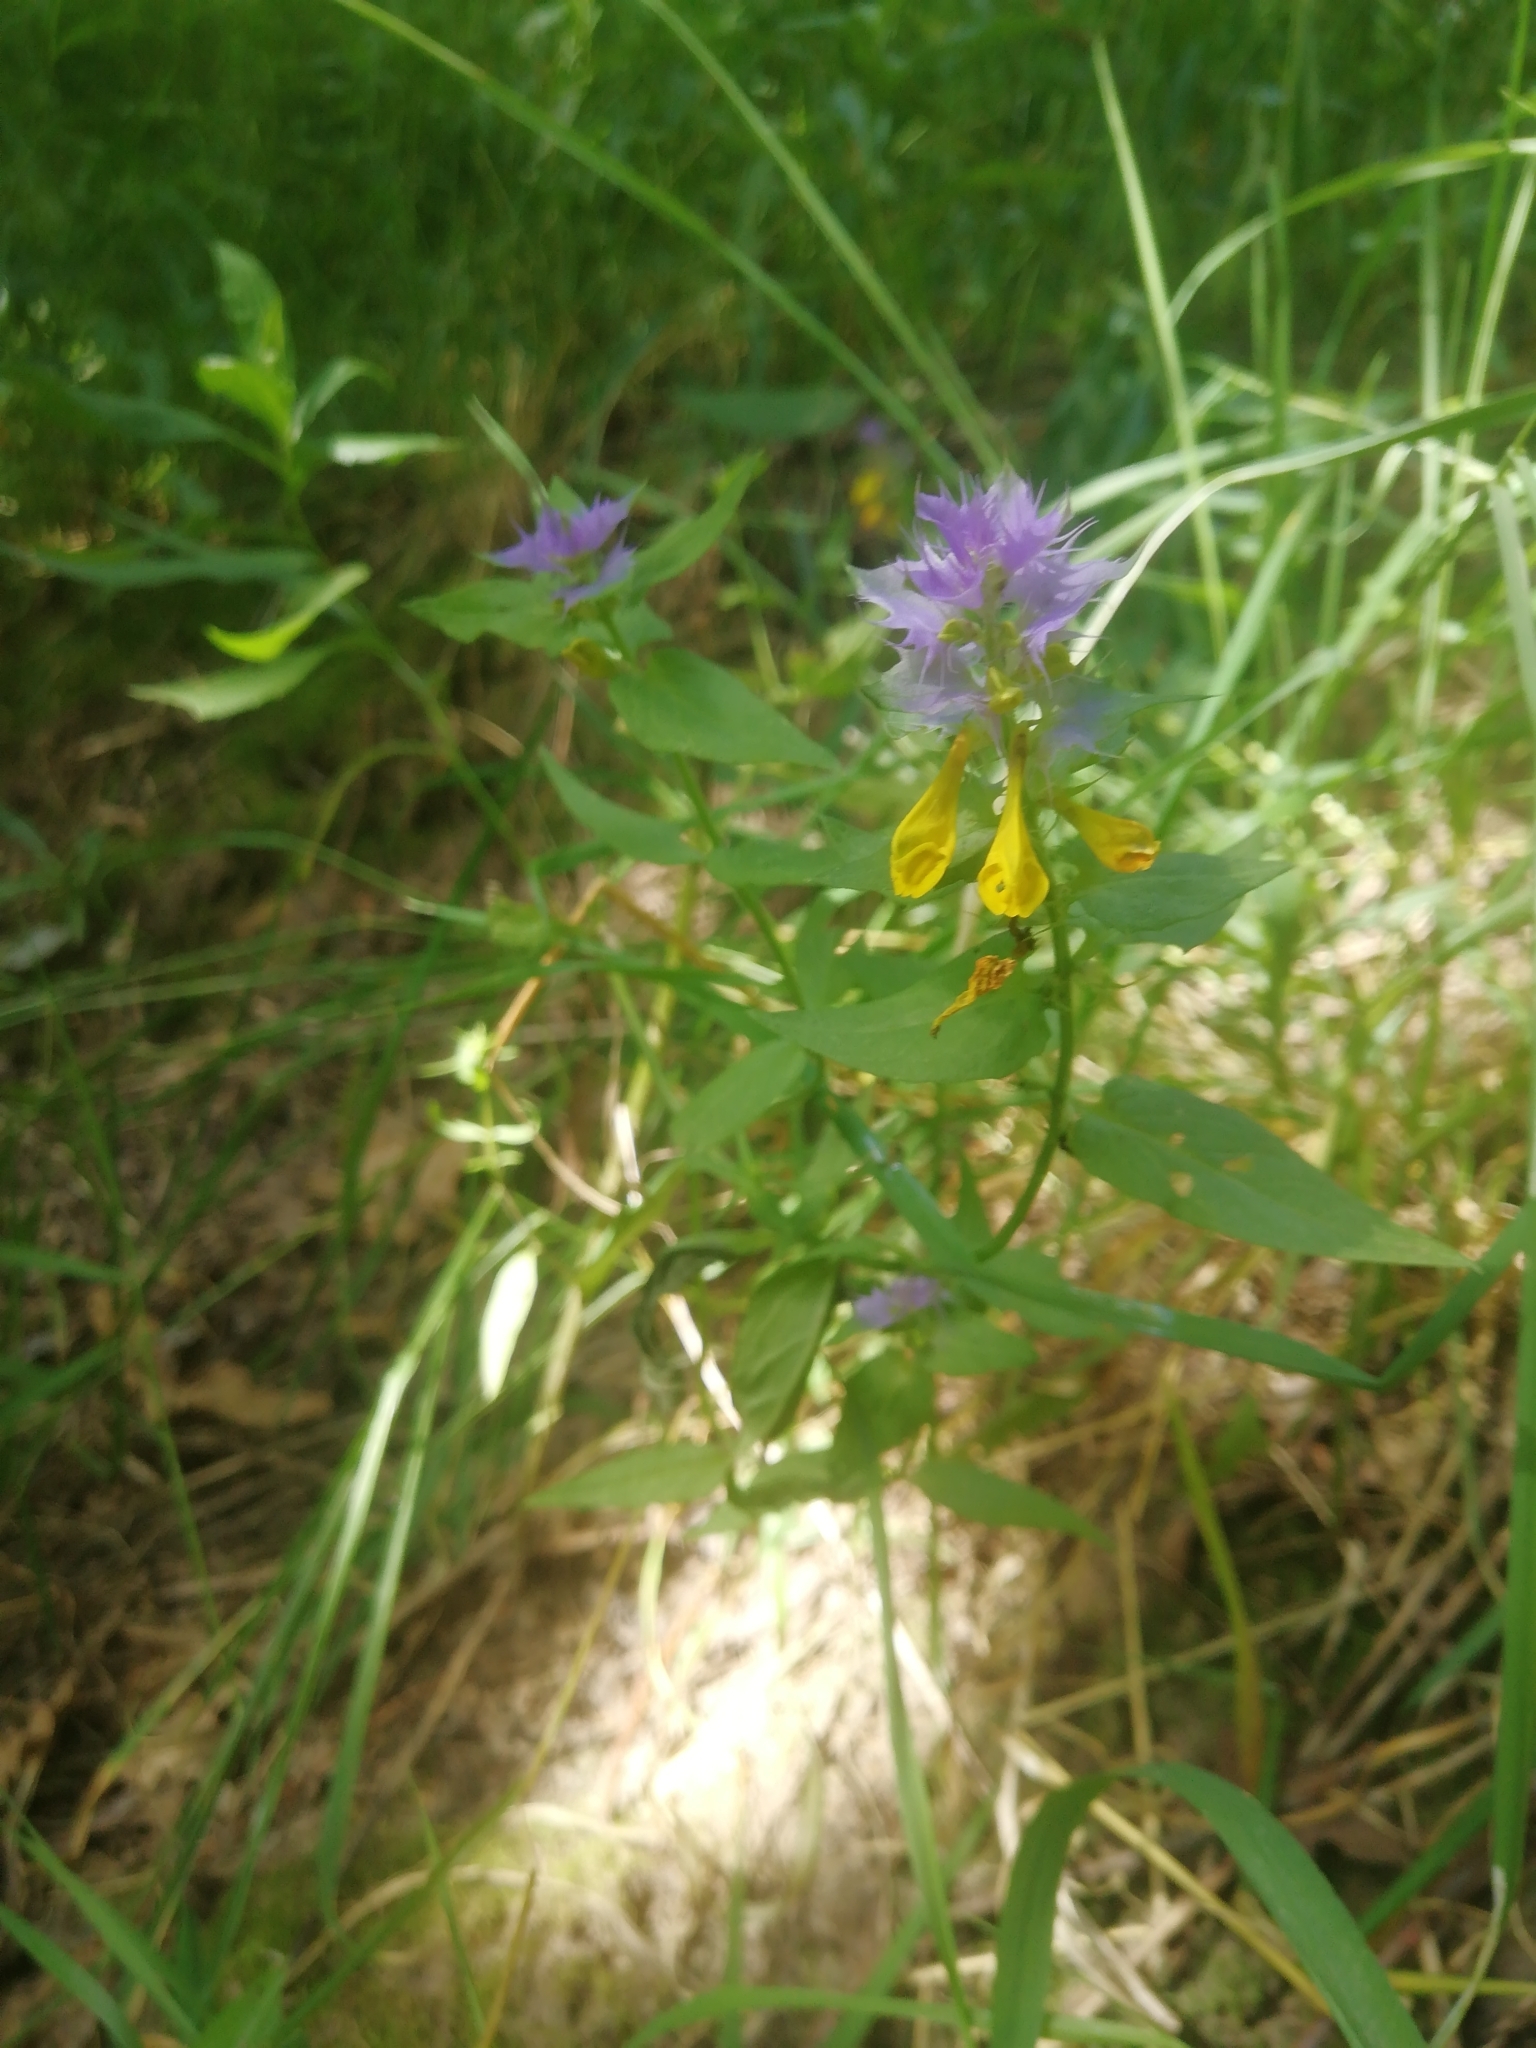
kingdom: Plantae
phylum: Tracheophyta
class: Magnoliopsida
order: Lamiales
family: Orobanchaceae
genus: Melampyrum
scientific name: Melampyrum nemorosum
